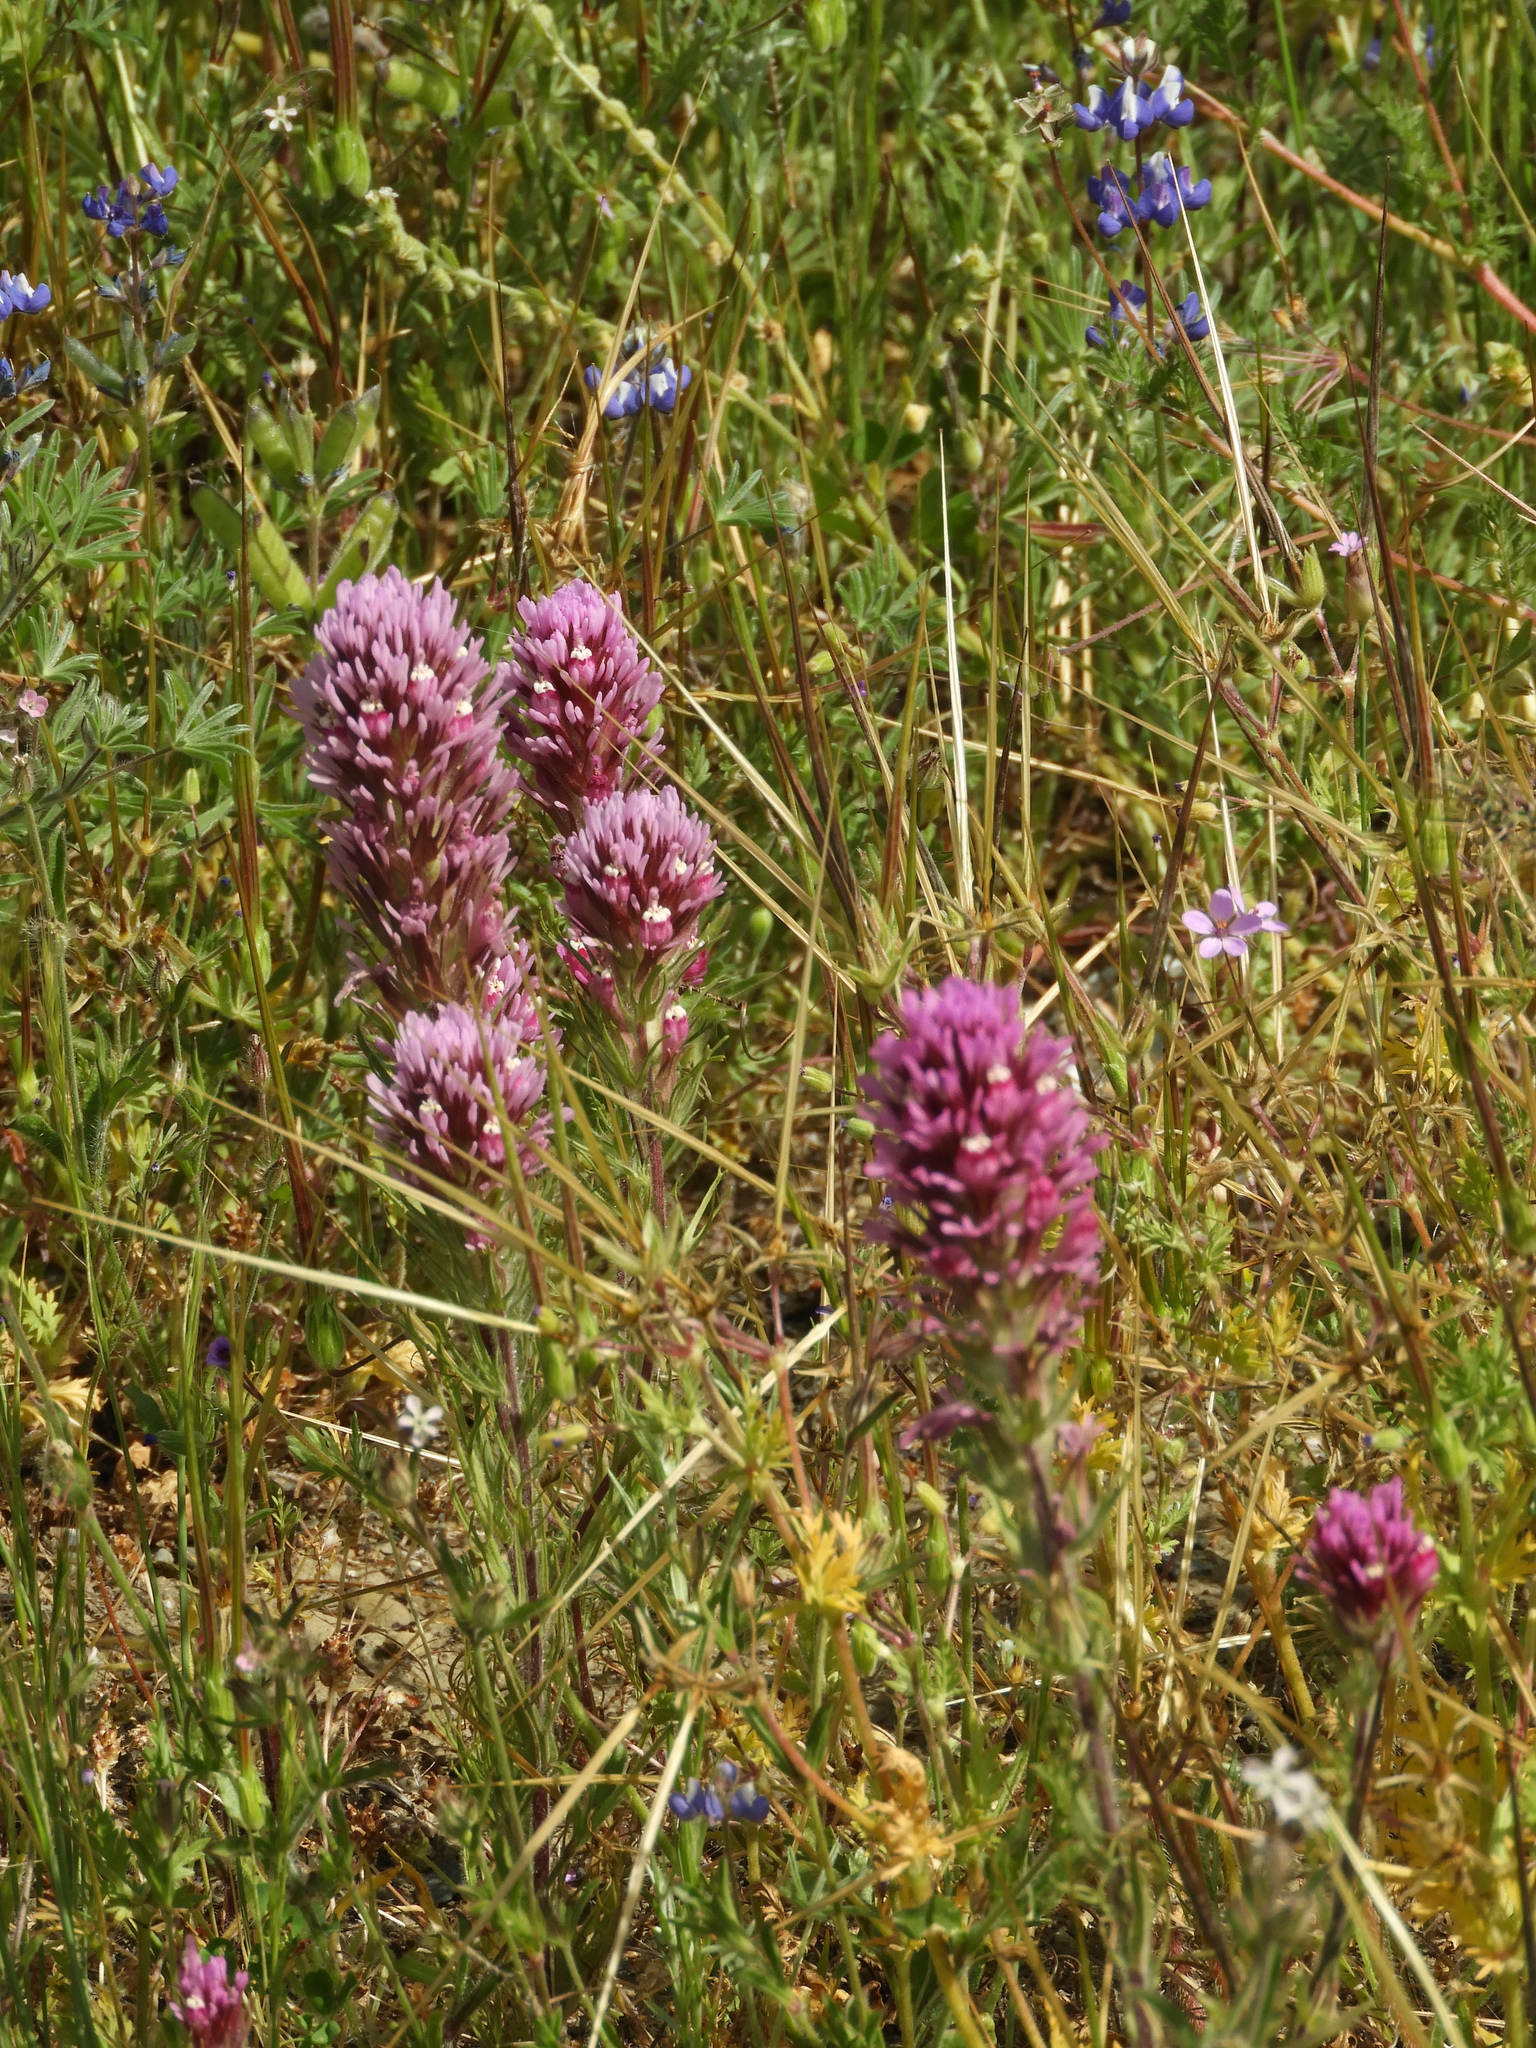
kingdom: Plantae
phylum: Tracheophyta
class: Magnoliopsida
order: Lamiales
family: Orobanchaceae
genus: Castilleja
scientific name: Castilleja exserta
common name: Purple owl-clover
